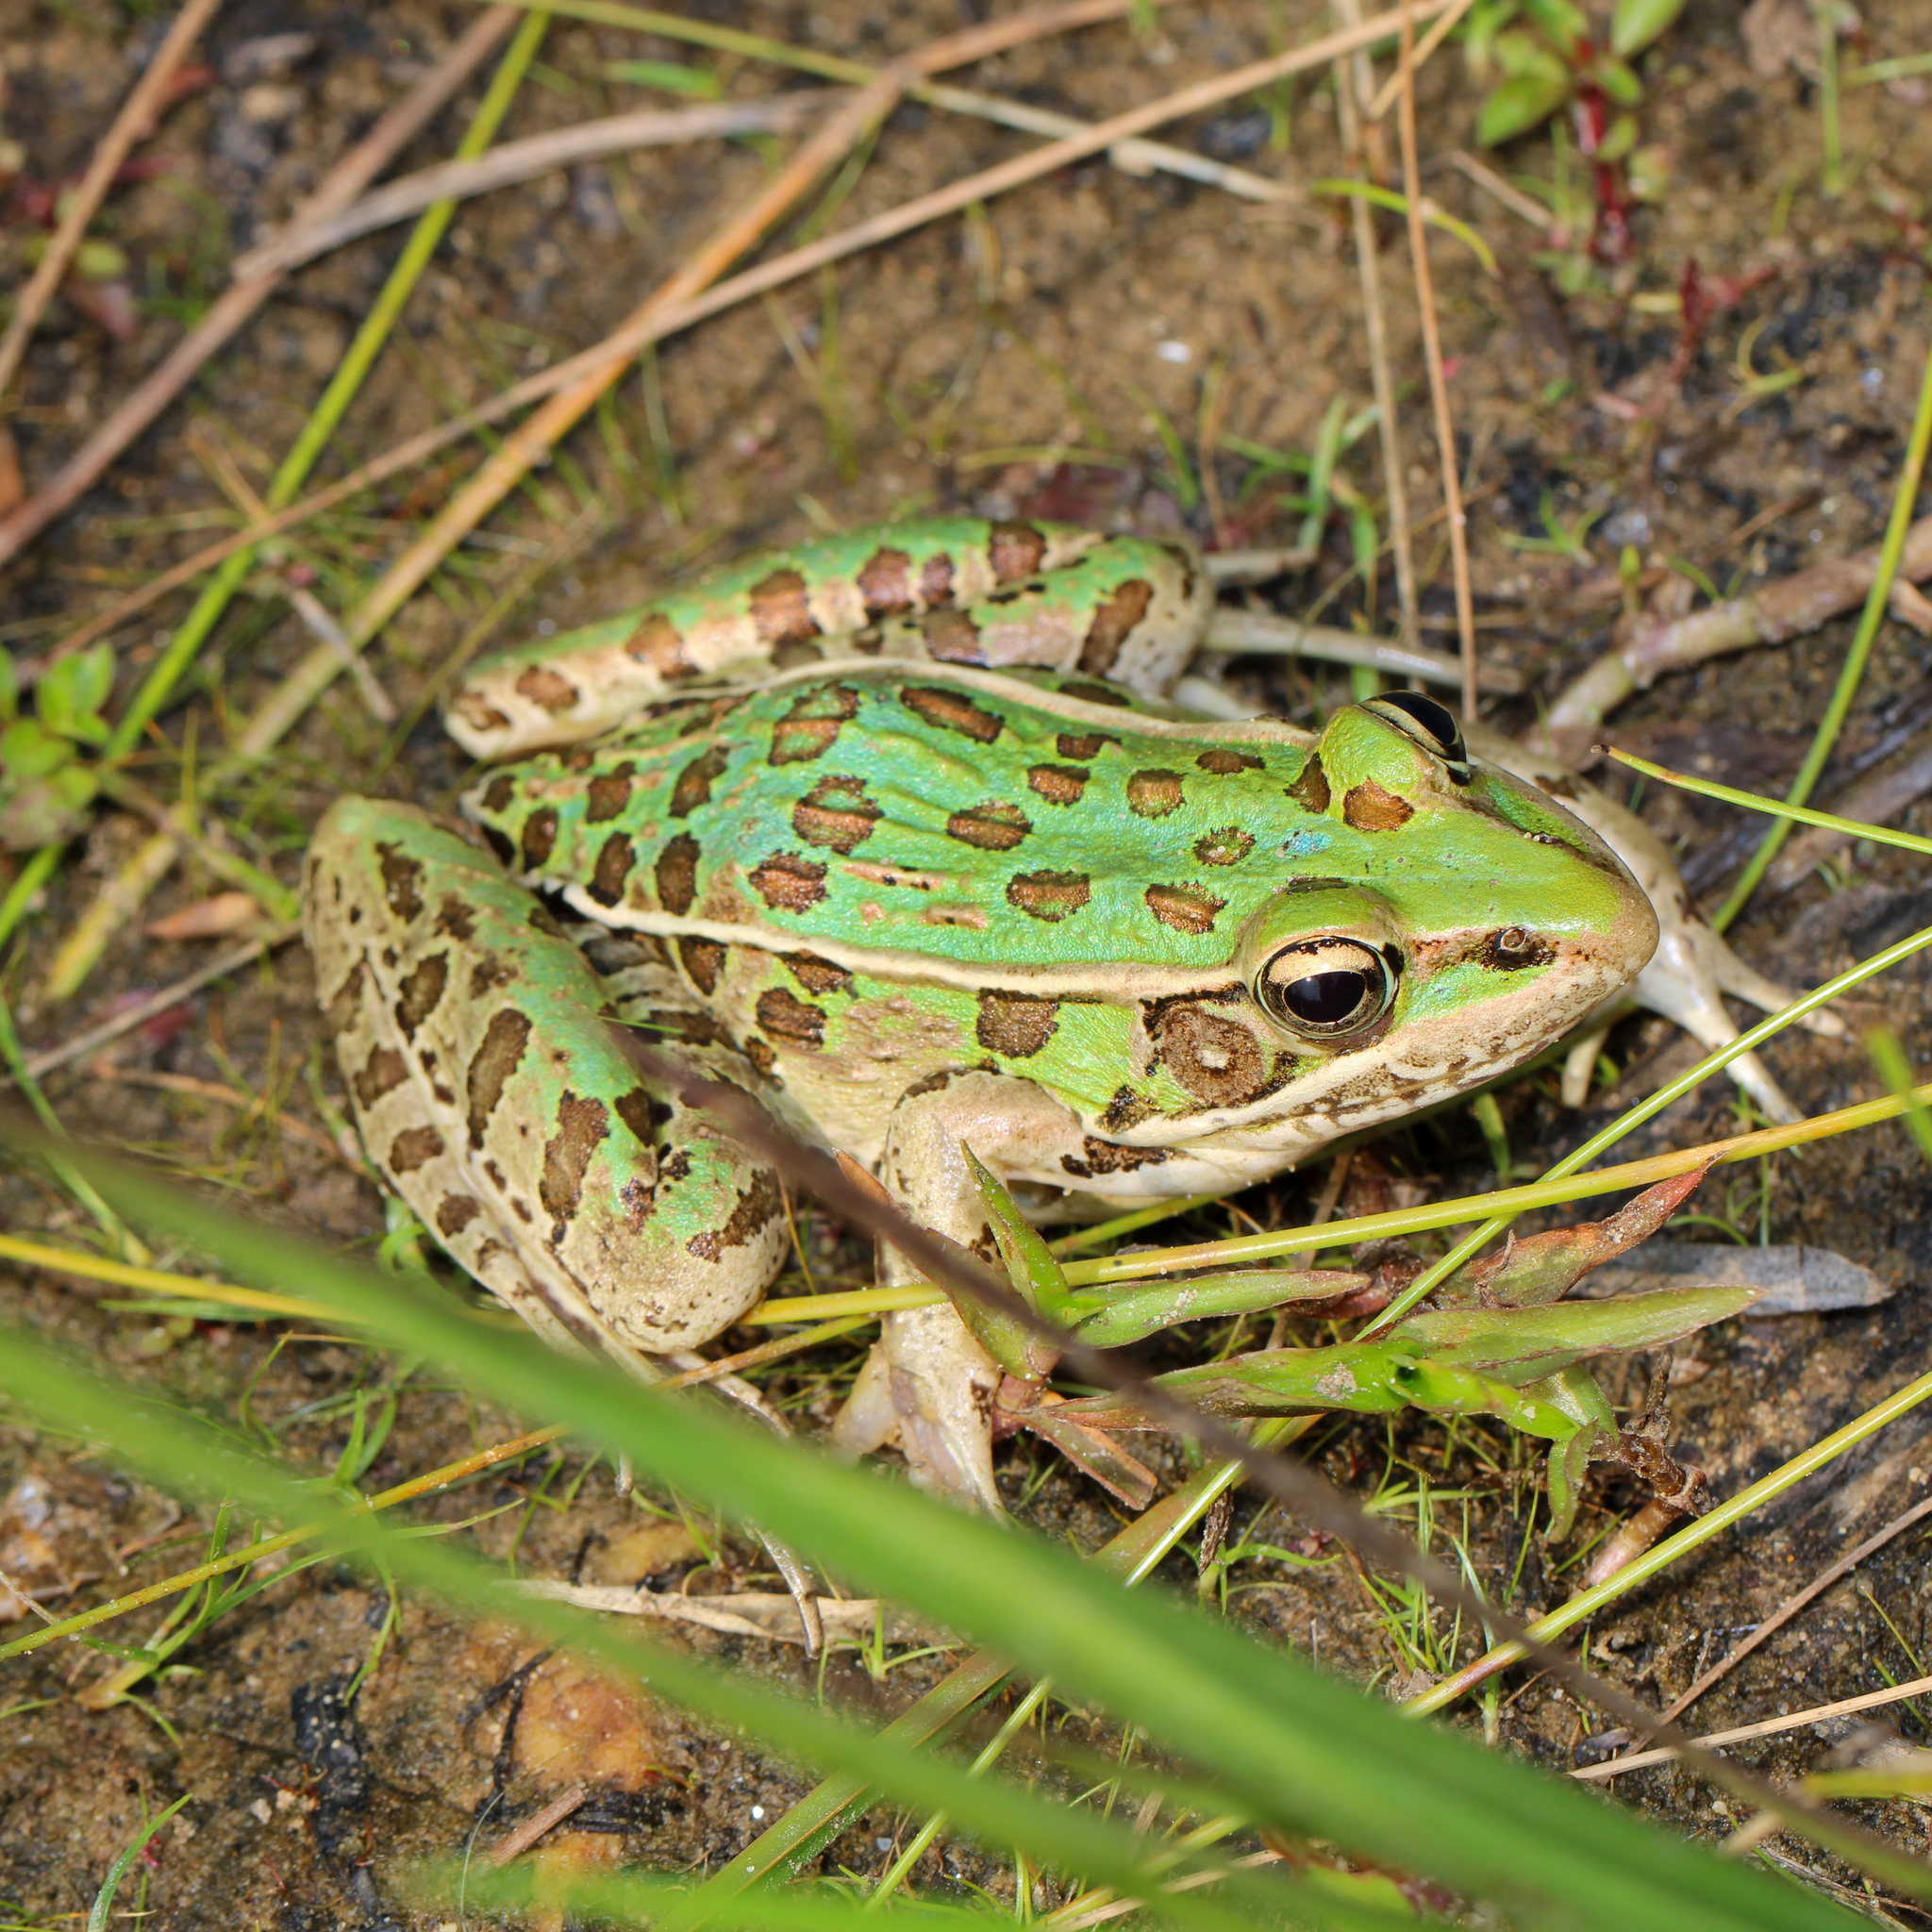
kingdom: Animalia
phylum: Chordata
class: Amphibia
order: Anura
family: Ranidae
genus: Lithobates
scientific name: Lithobates sphenocephalus
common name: Southern leopard frog
